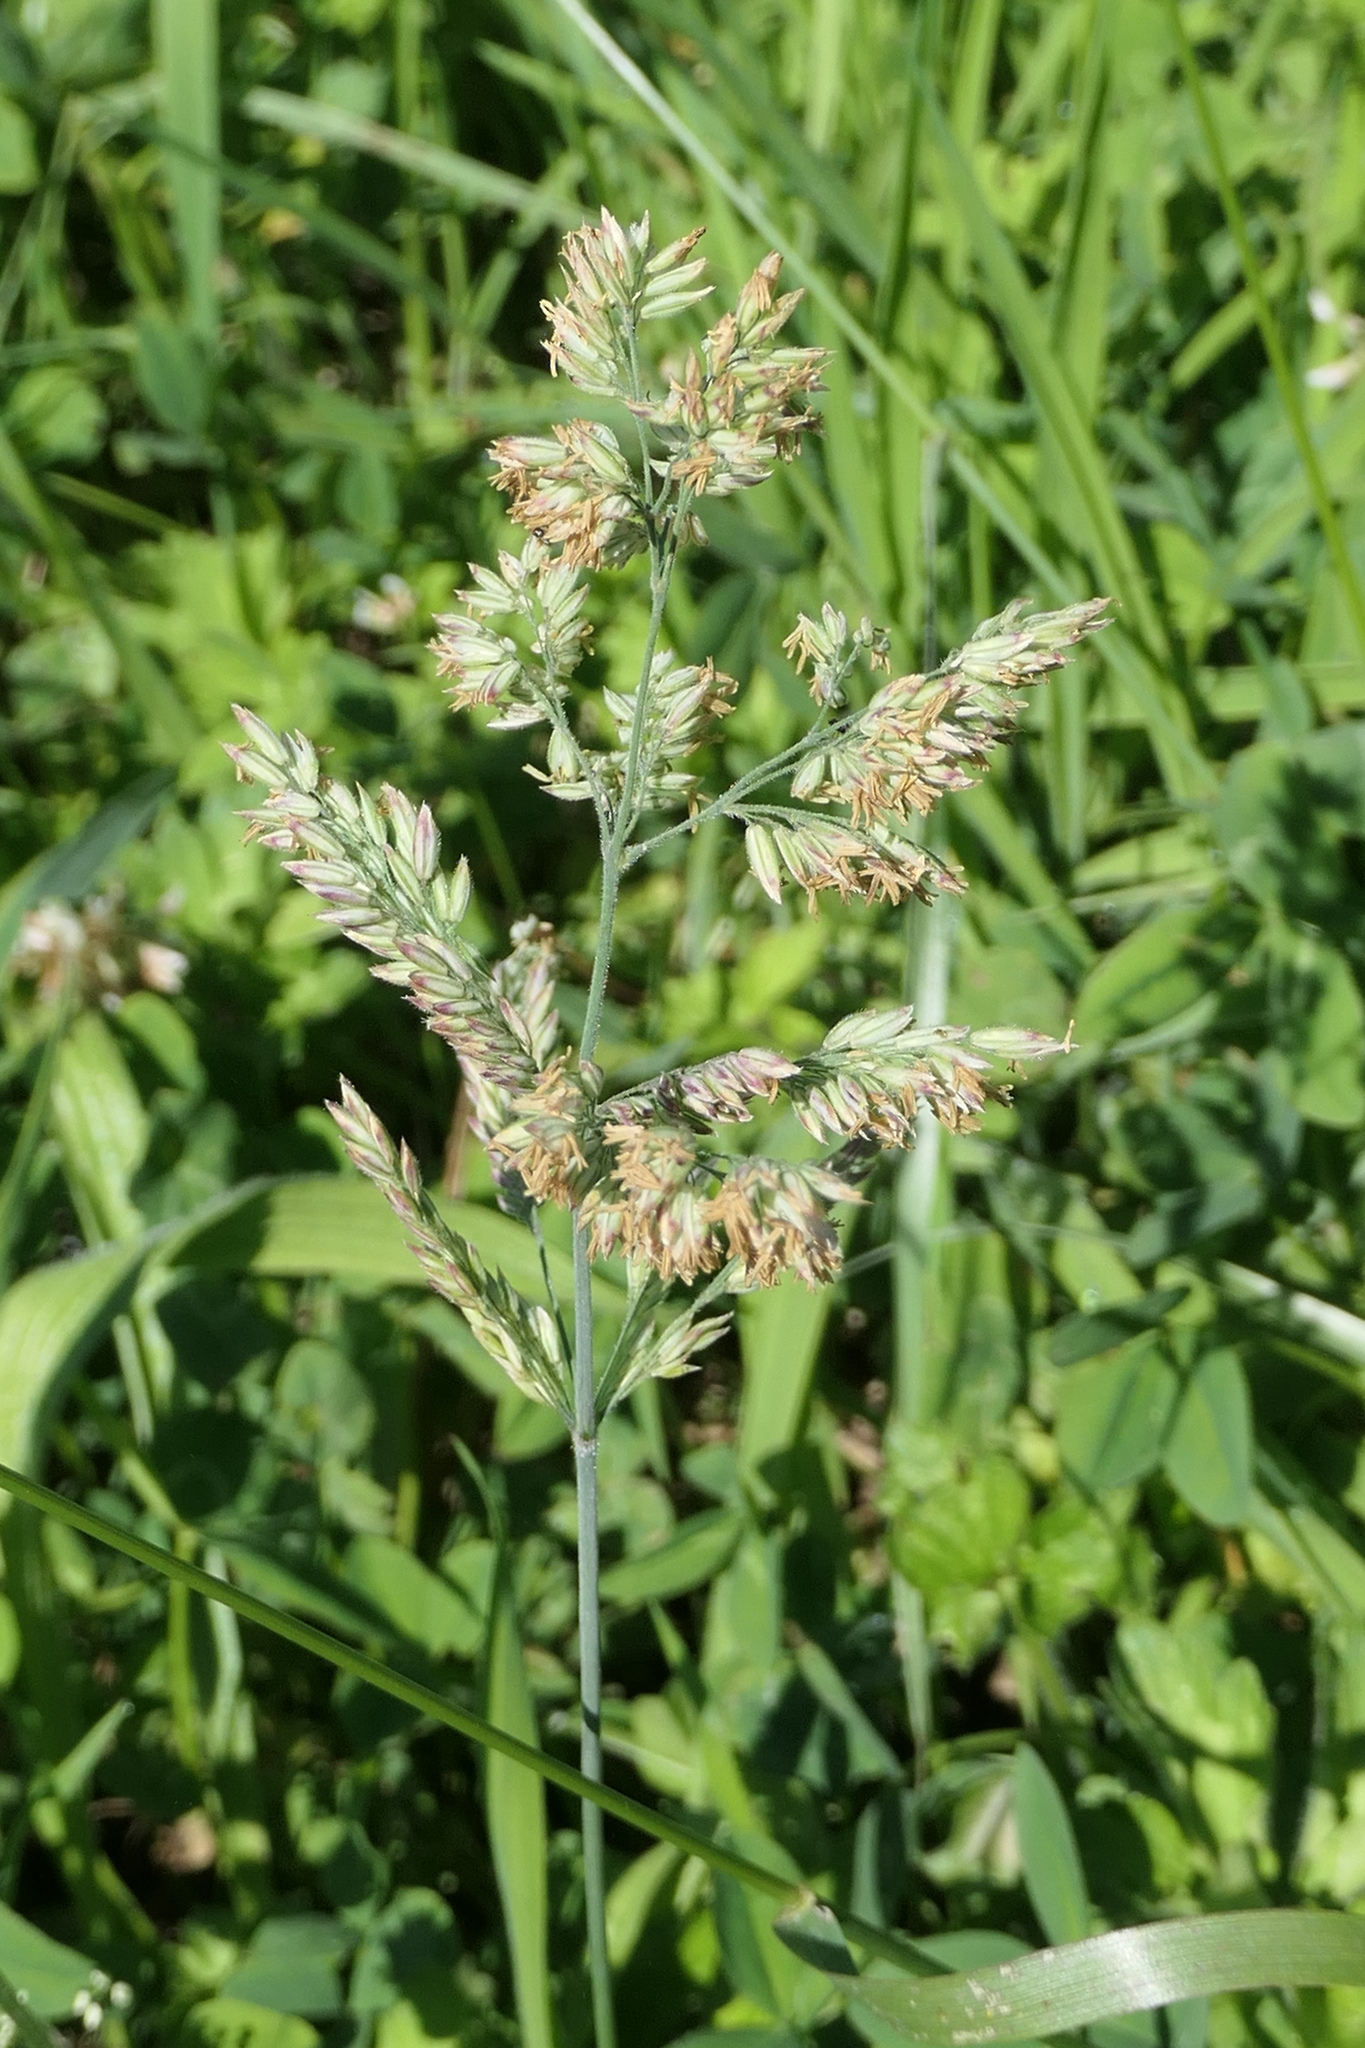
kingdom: Plantae
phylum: Tracheophyta
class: Liliopsida
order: Poales
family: Poaceae
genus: Dactylis
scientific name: Dactylis glomerata
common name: Orchardgrass
